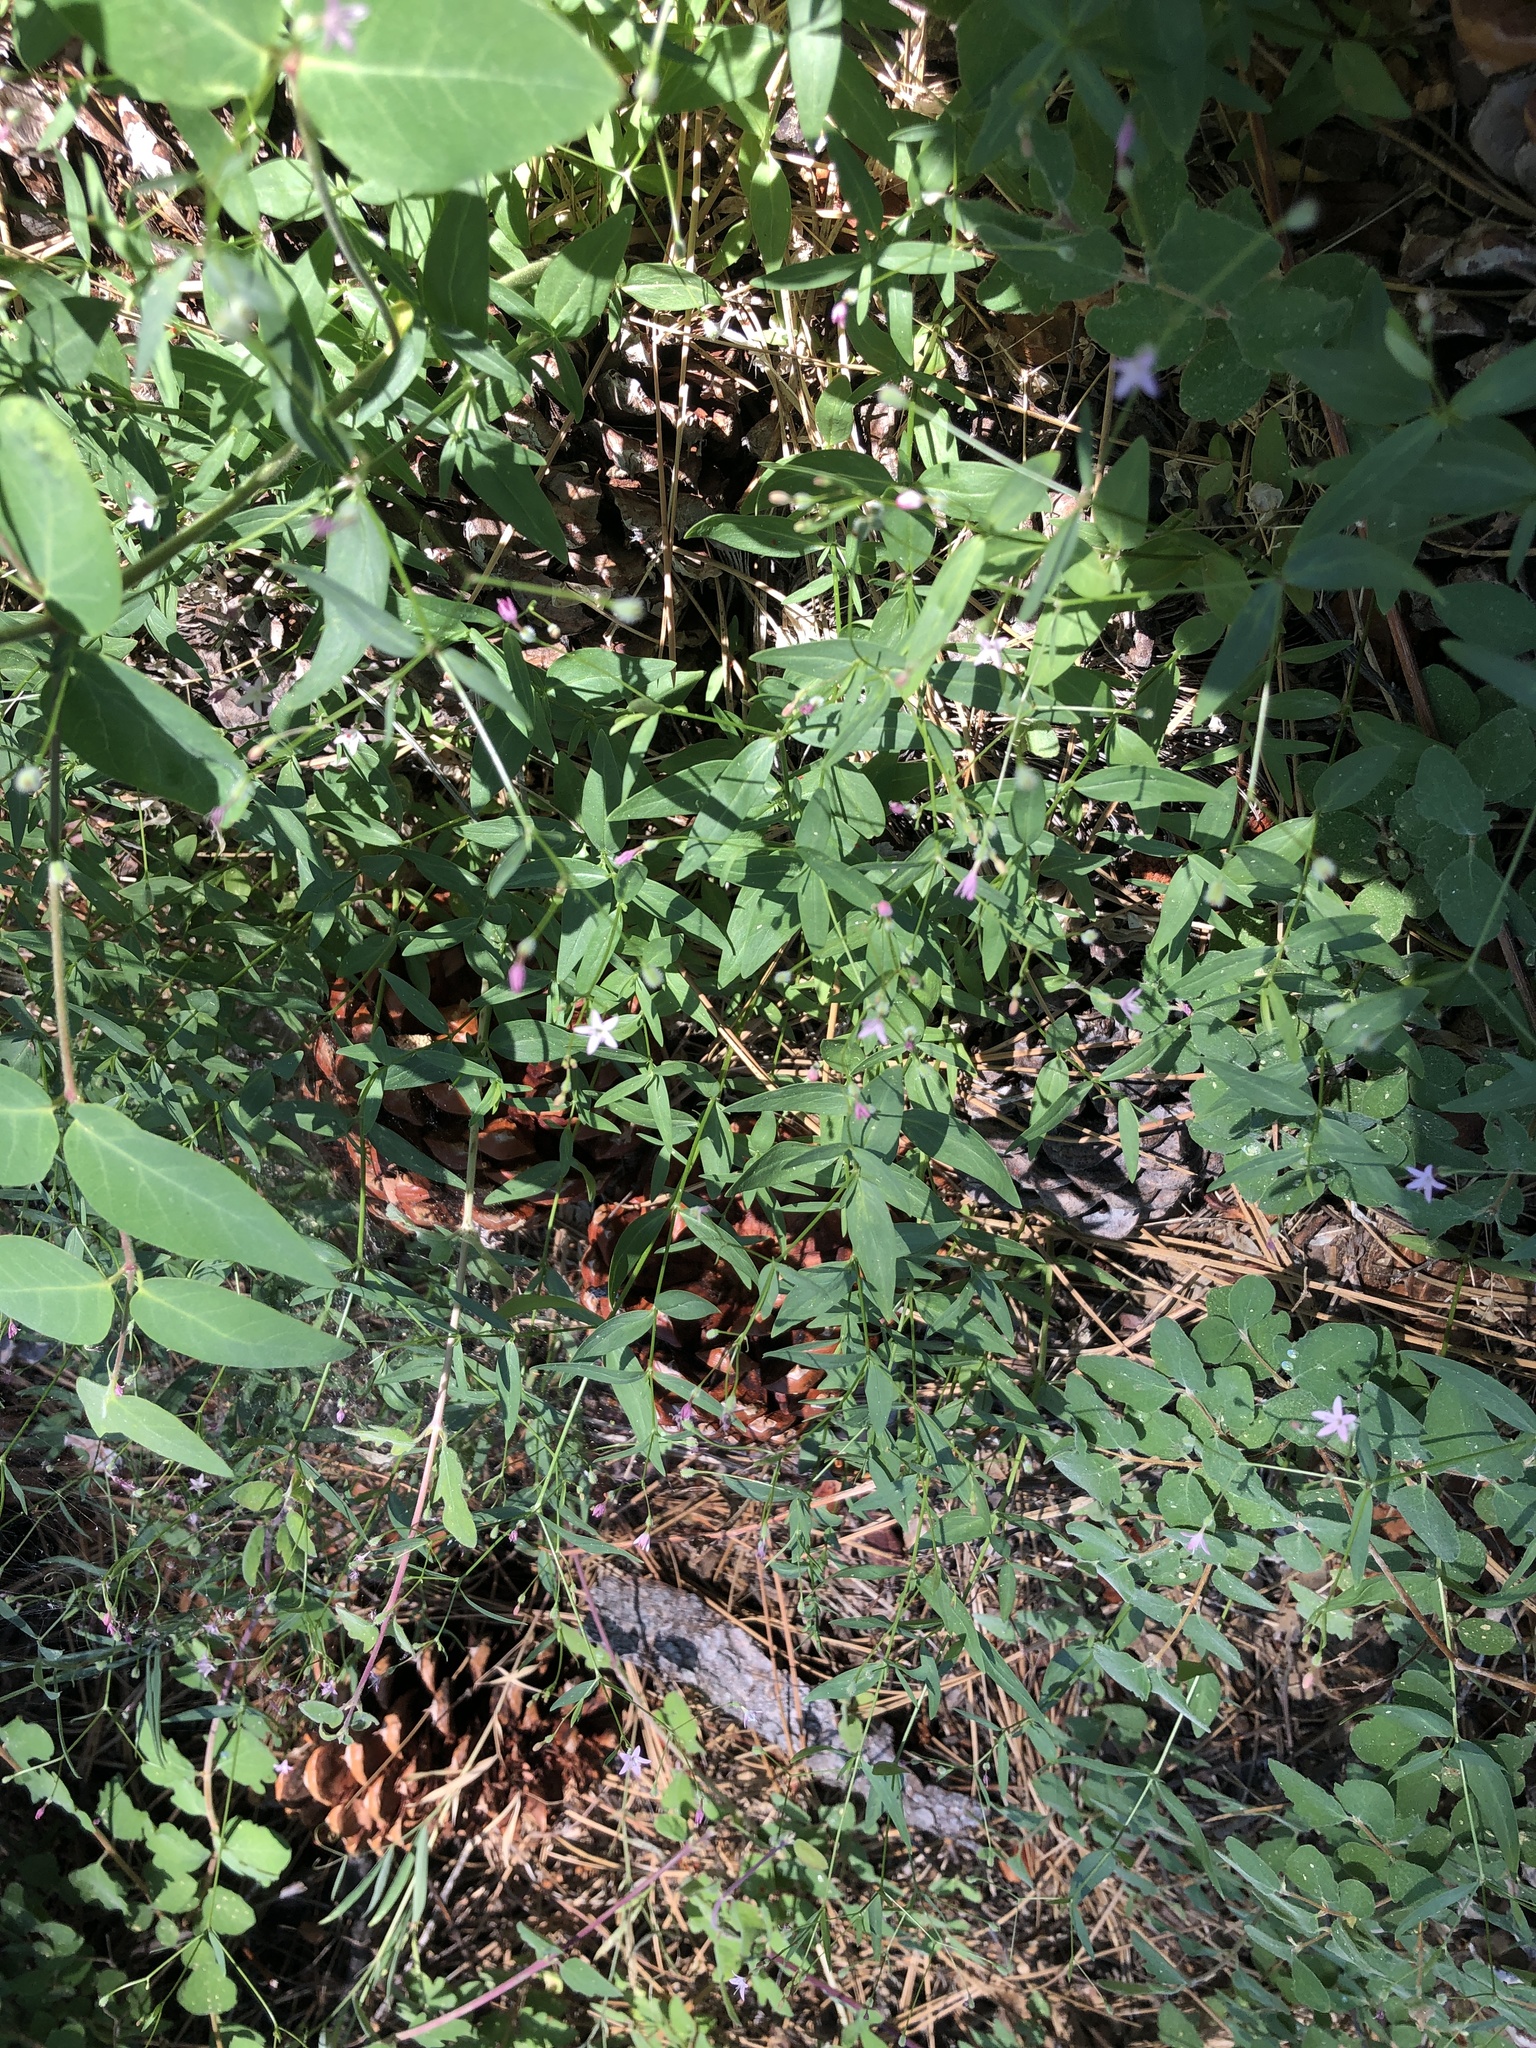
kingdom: Plantae
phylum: Tracheophyta
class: Magnoliopsida
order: Gentianales
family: Rubiaceae
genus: Kelloggia
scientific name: Kelloggia galioides
